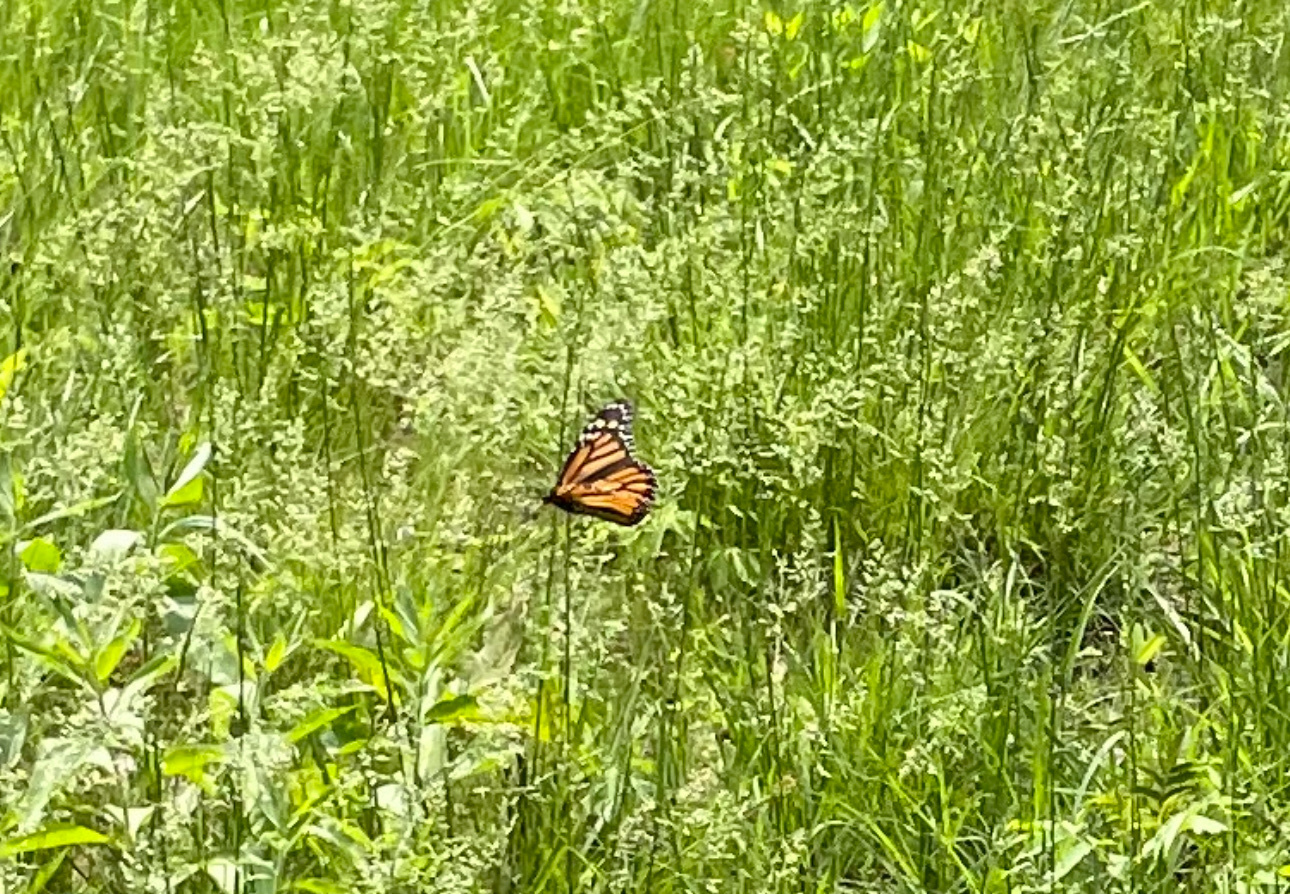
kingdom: Animalia
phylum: Arthropoda
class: Insecta
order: Lepidoptera
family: Nymphalidae
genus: Danaus
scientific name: Danaus plexippus
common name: Monarch
